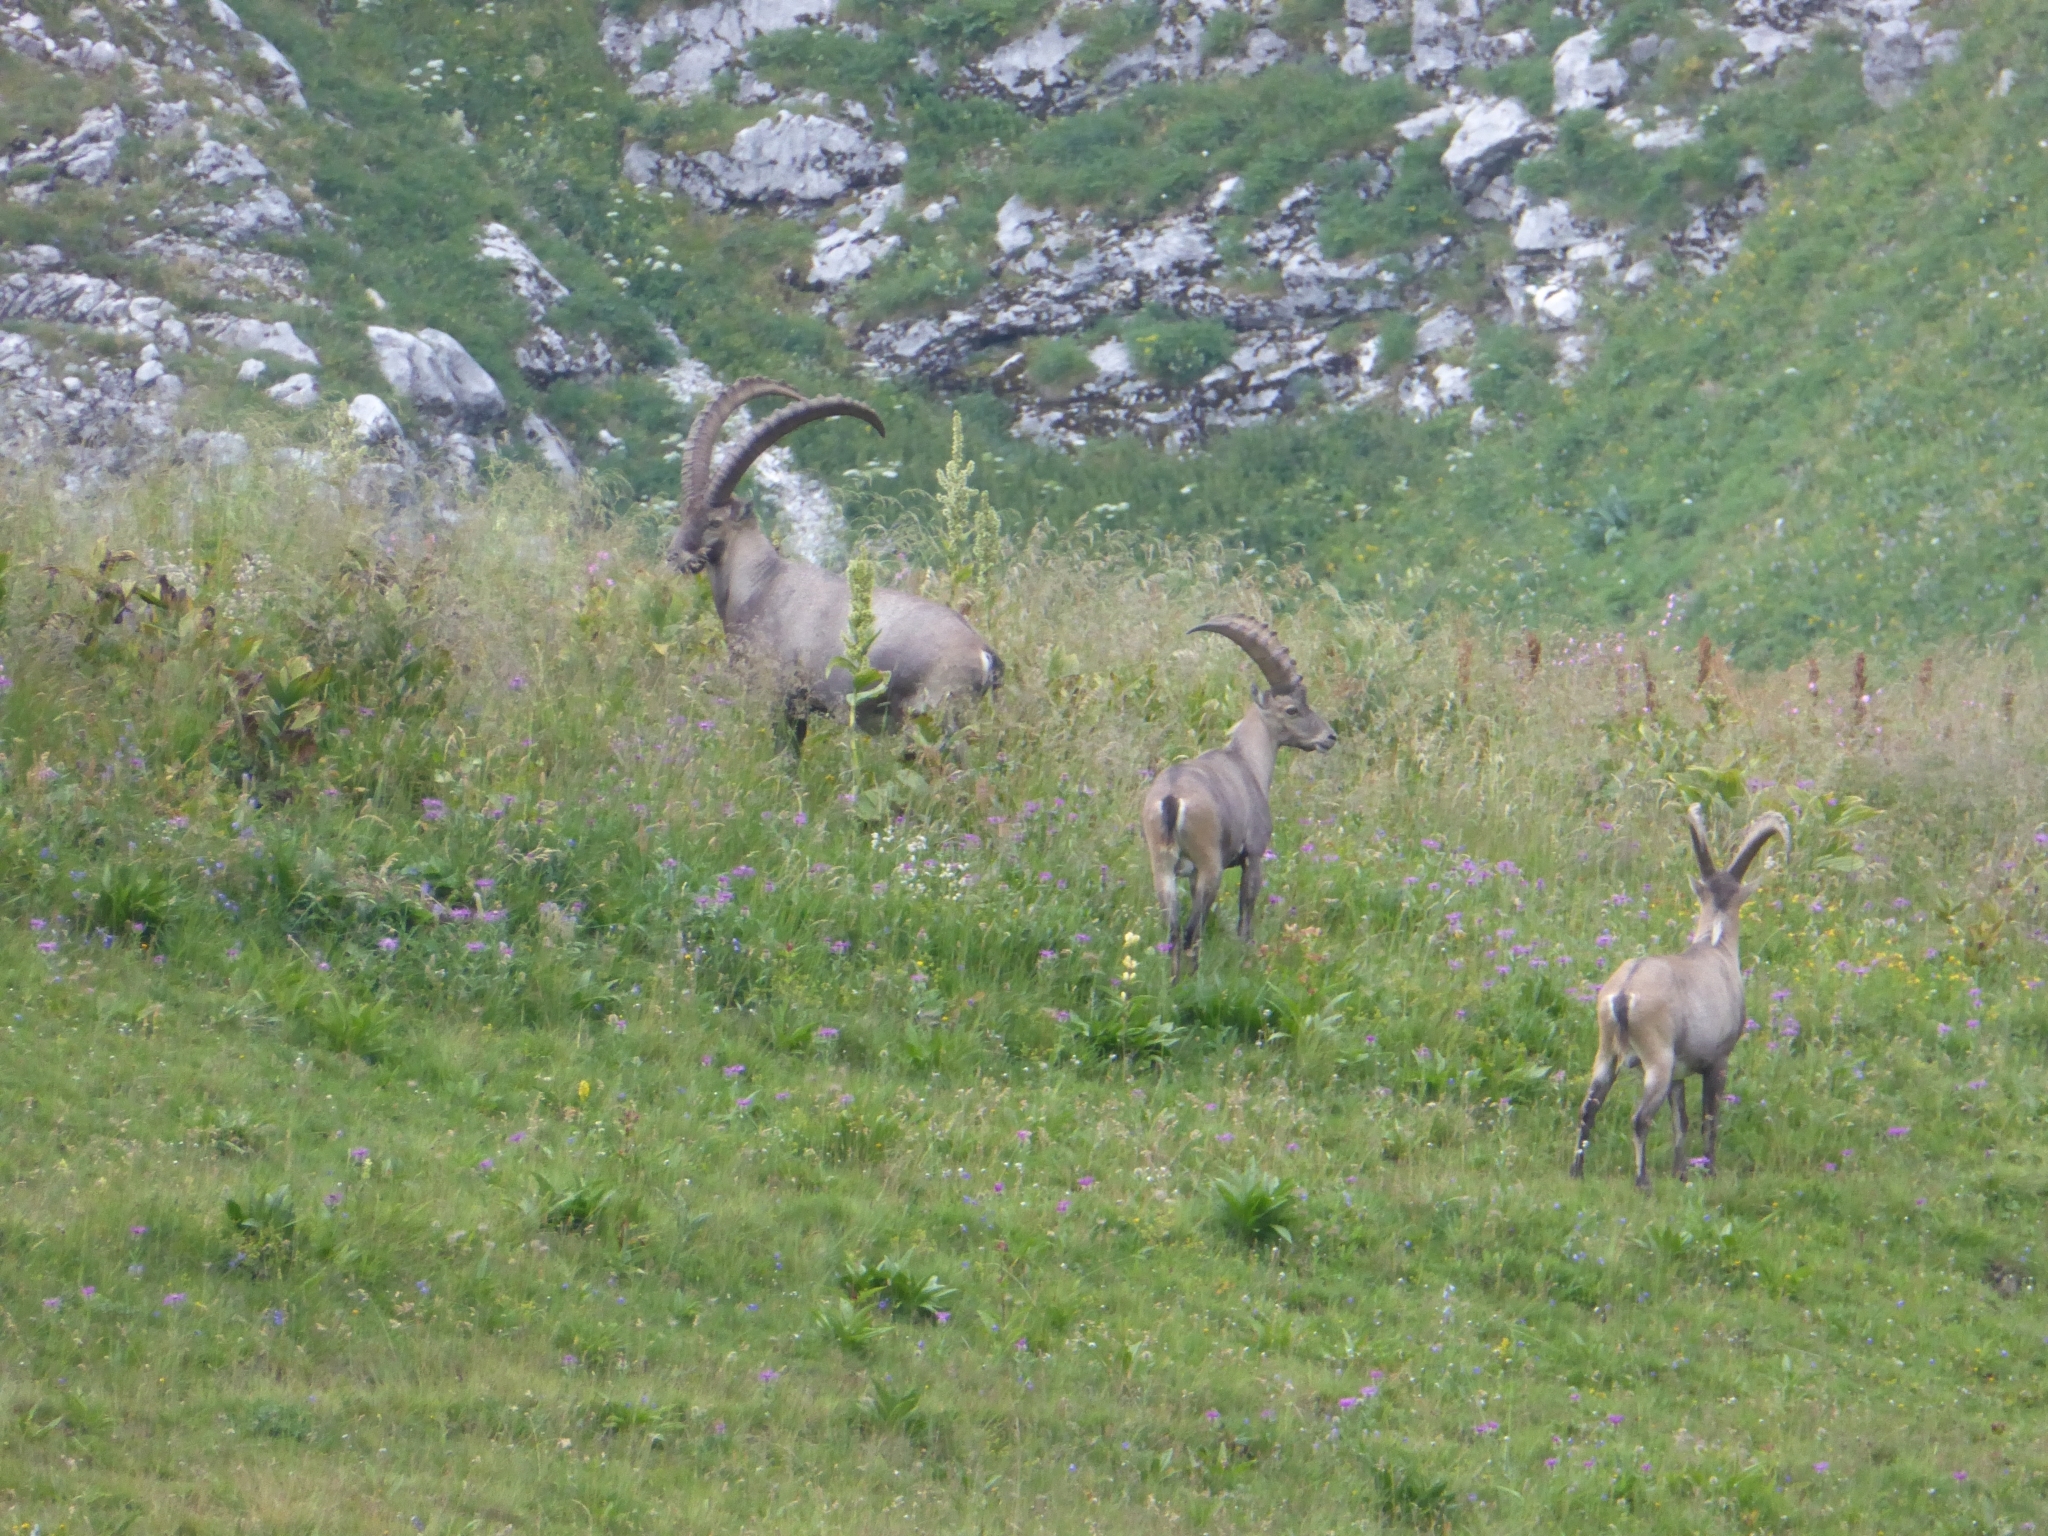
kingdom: Animalia
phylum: Chordata
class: Mammalia
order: Artiodactyla
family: Bovidae
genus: Capra
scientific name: Capra ibex
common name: Alpine ibex
